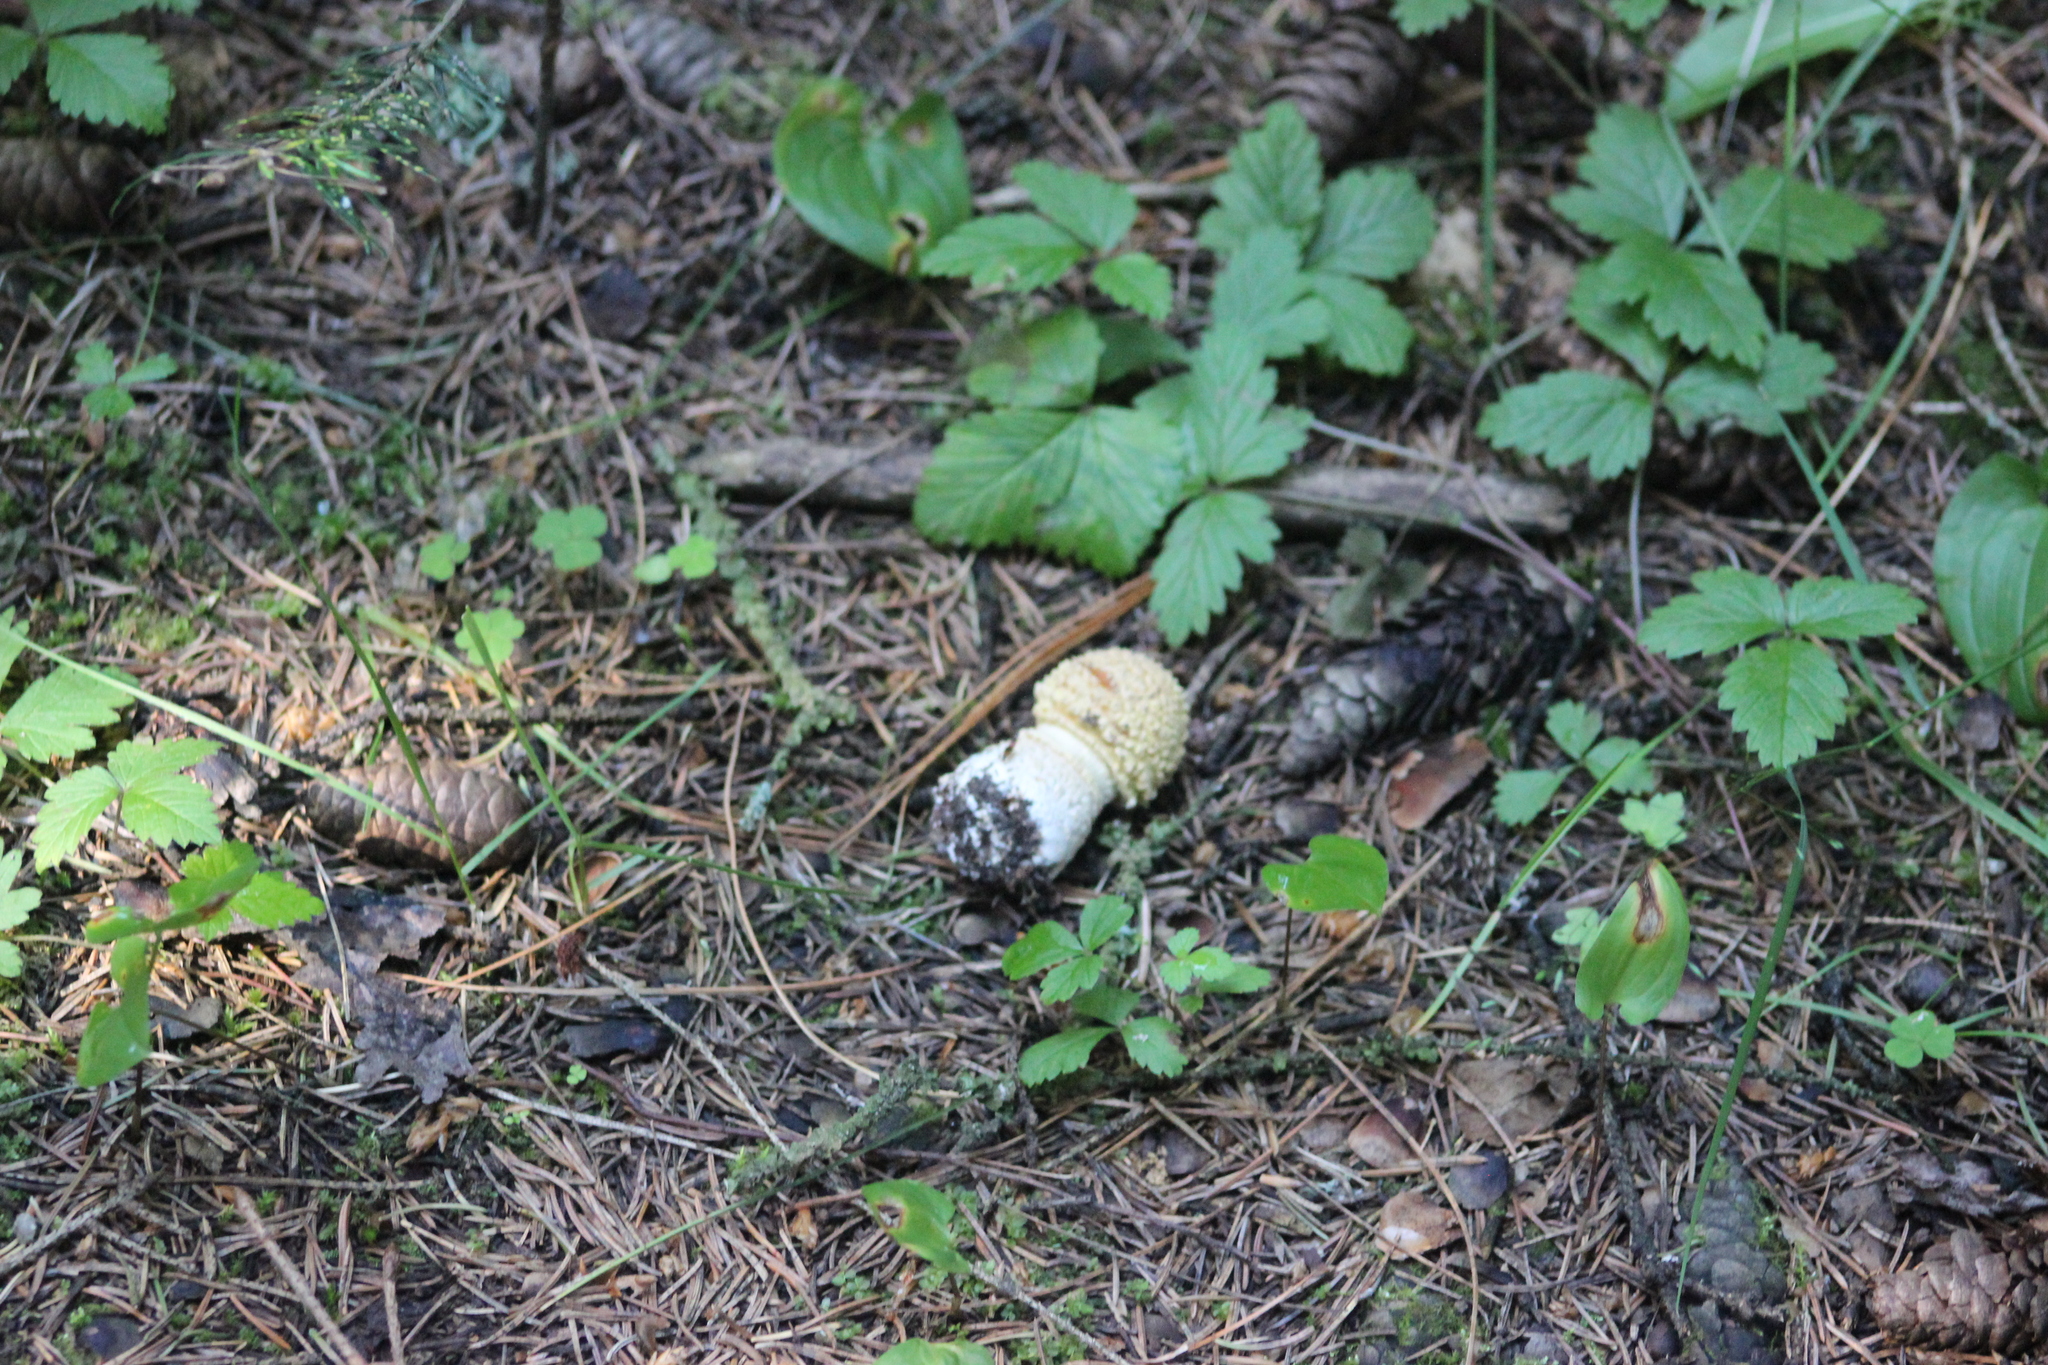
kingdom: Fungi
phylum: Basidiomycota
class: Agaricomycetes
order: Agaricales
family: Amanitaceae
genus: Amanita
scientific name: Amanita regalis
